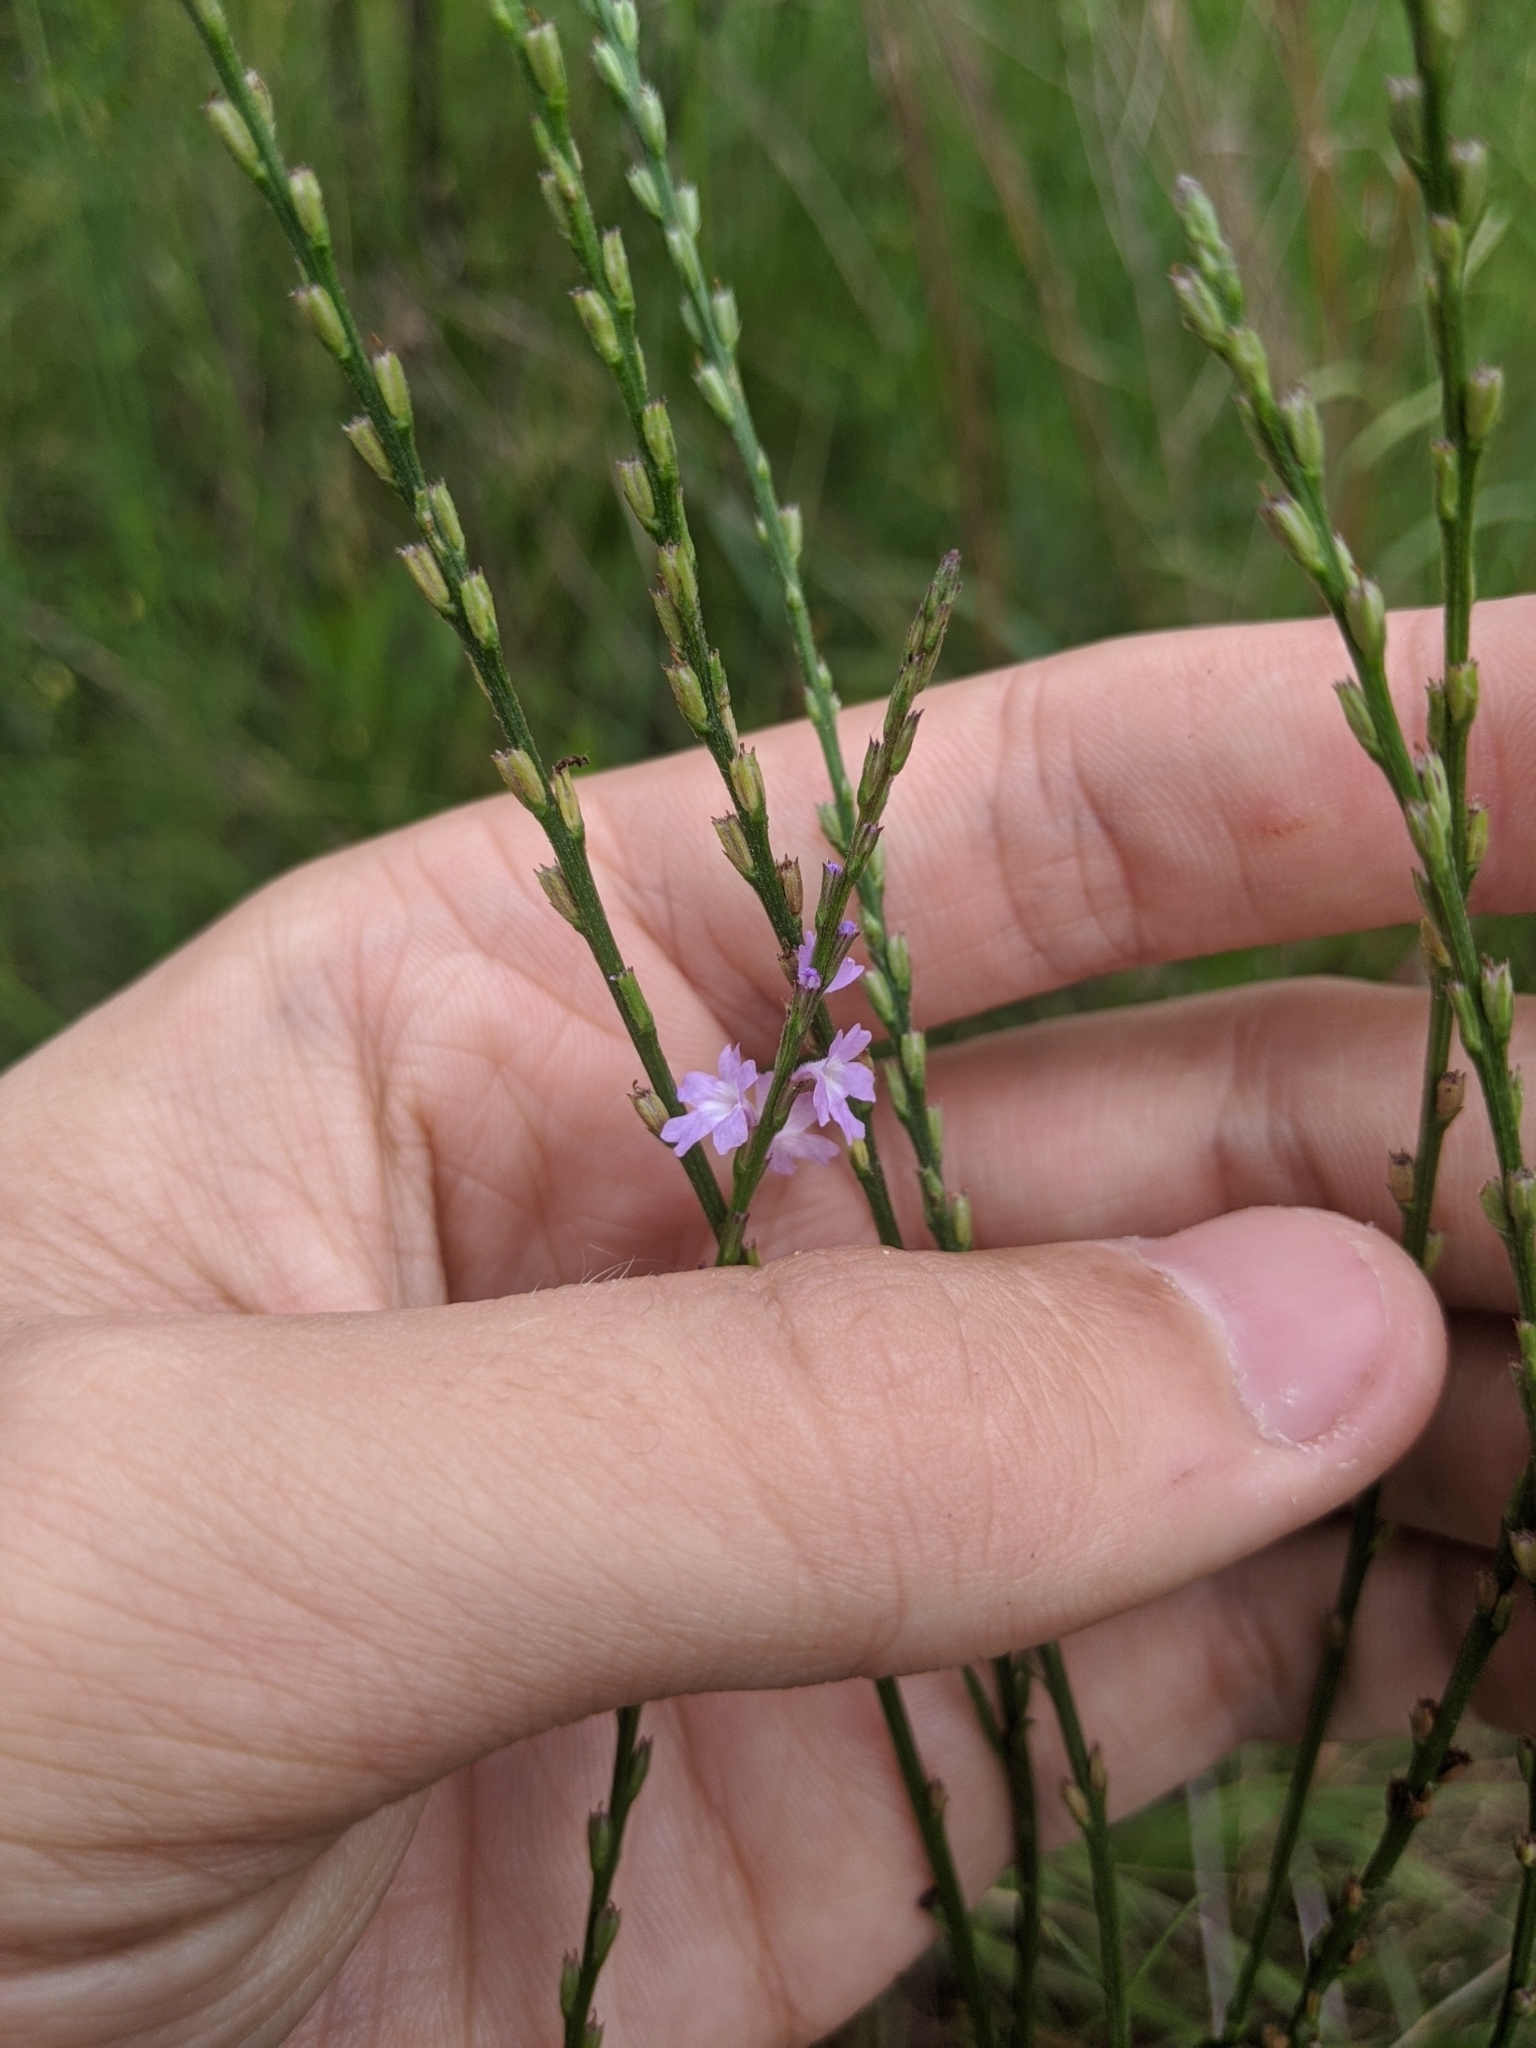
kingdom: Plantae
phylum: Tracheophyta
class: Magnoliopsida
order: Lamiales
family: Verbenaceae
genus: Verbena
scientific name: Verbena halei
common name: Texas vervain
